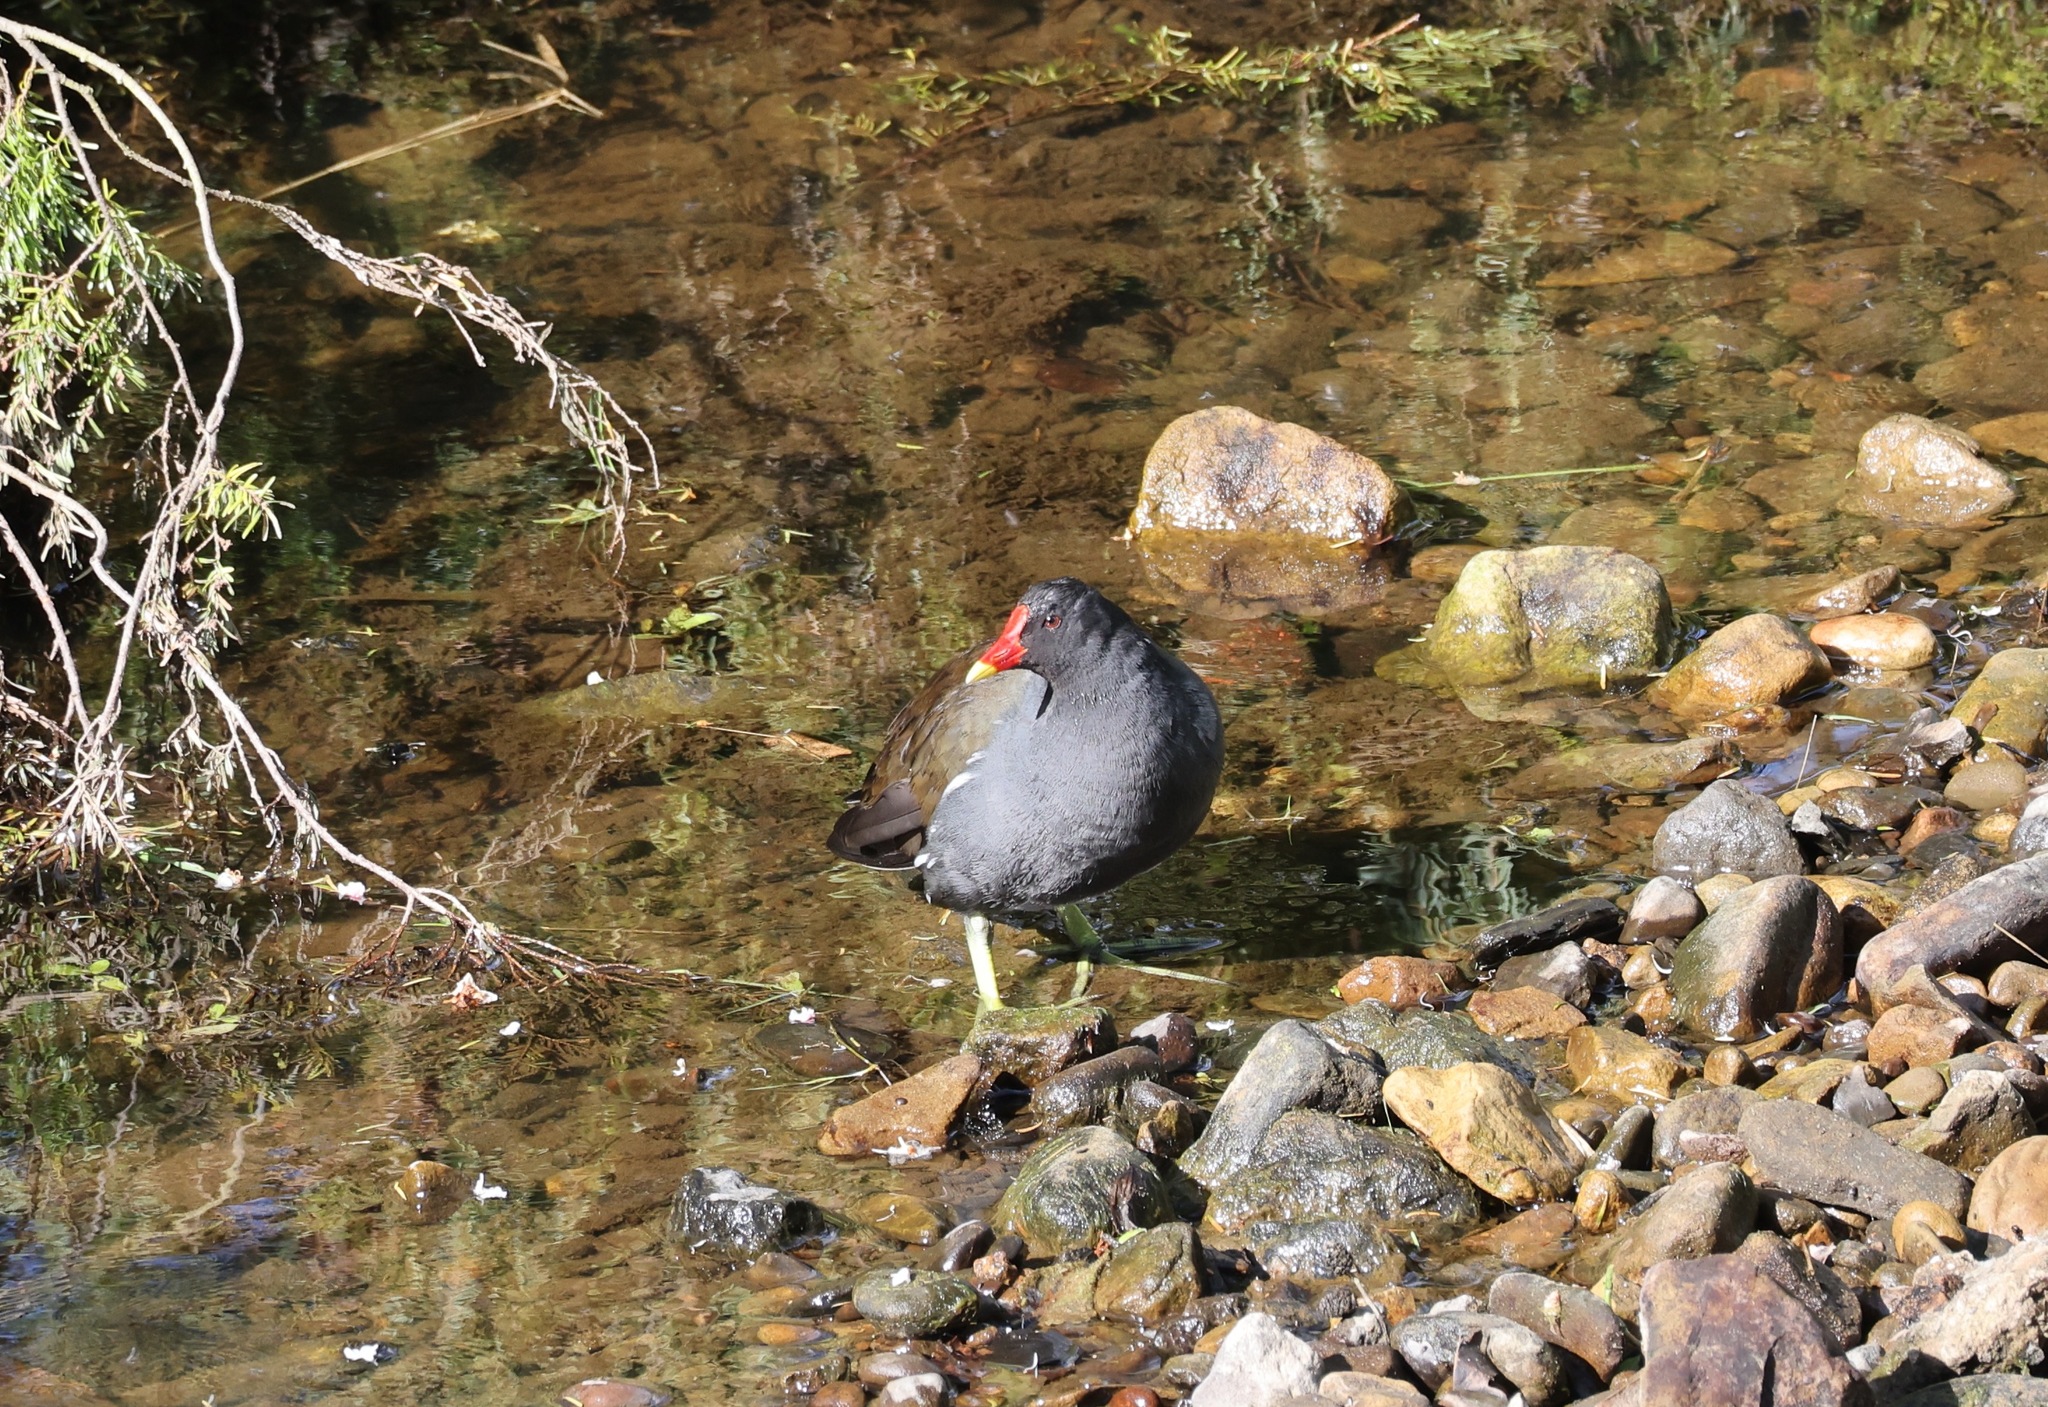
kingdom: Animalia
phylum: Chordata
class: Aves
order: Gruiformes
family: Rallidae
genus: Gallinula
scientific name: Gallinula chloropus
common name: Common moorhen
